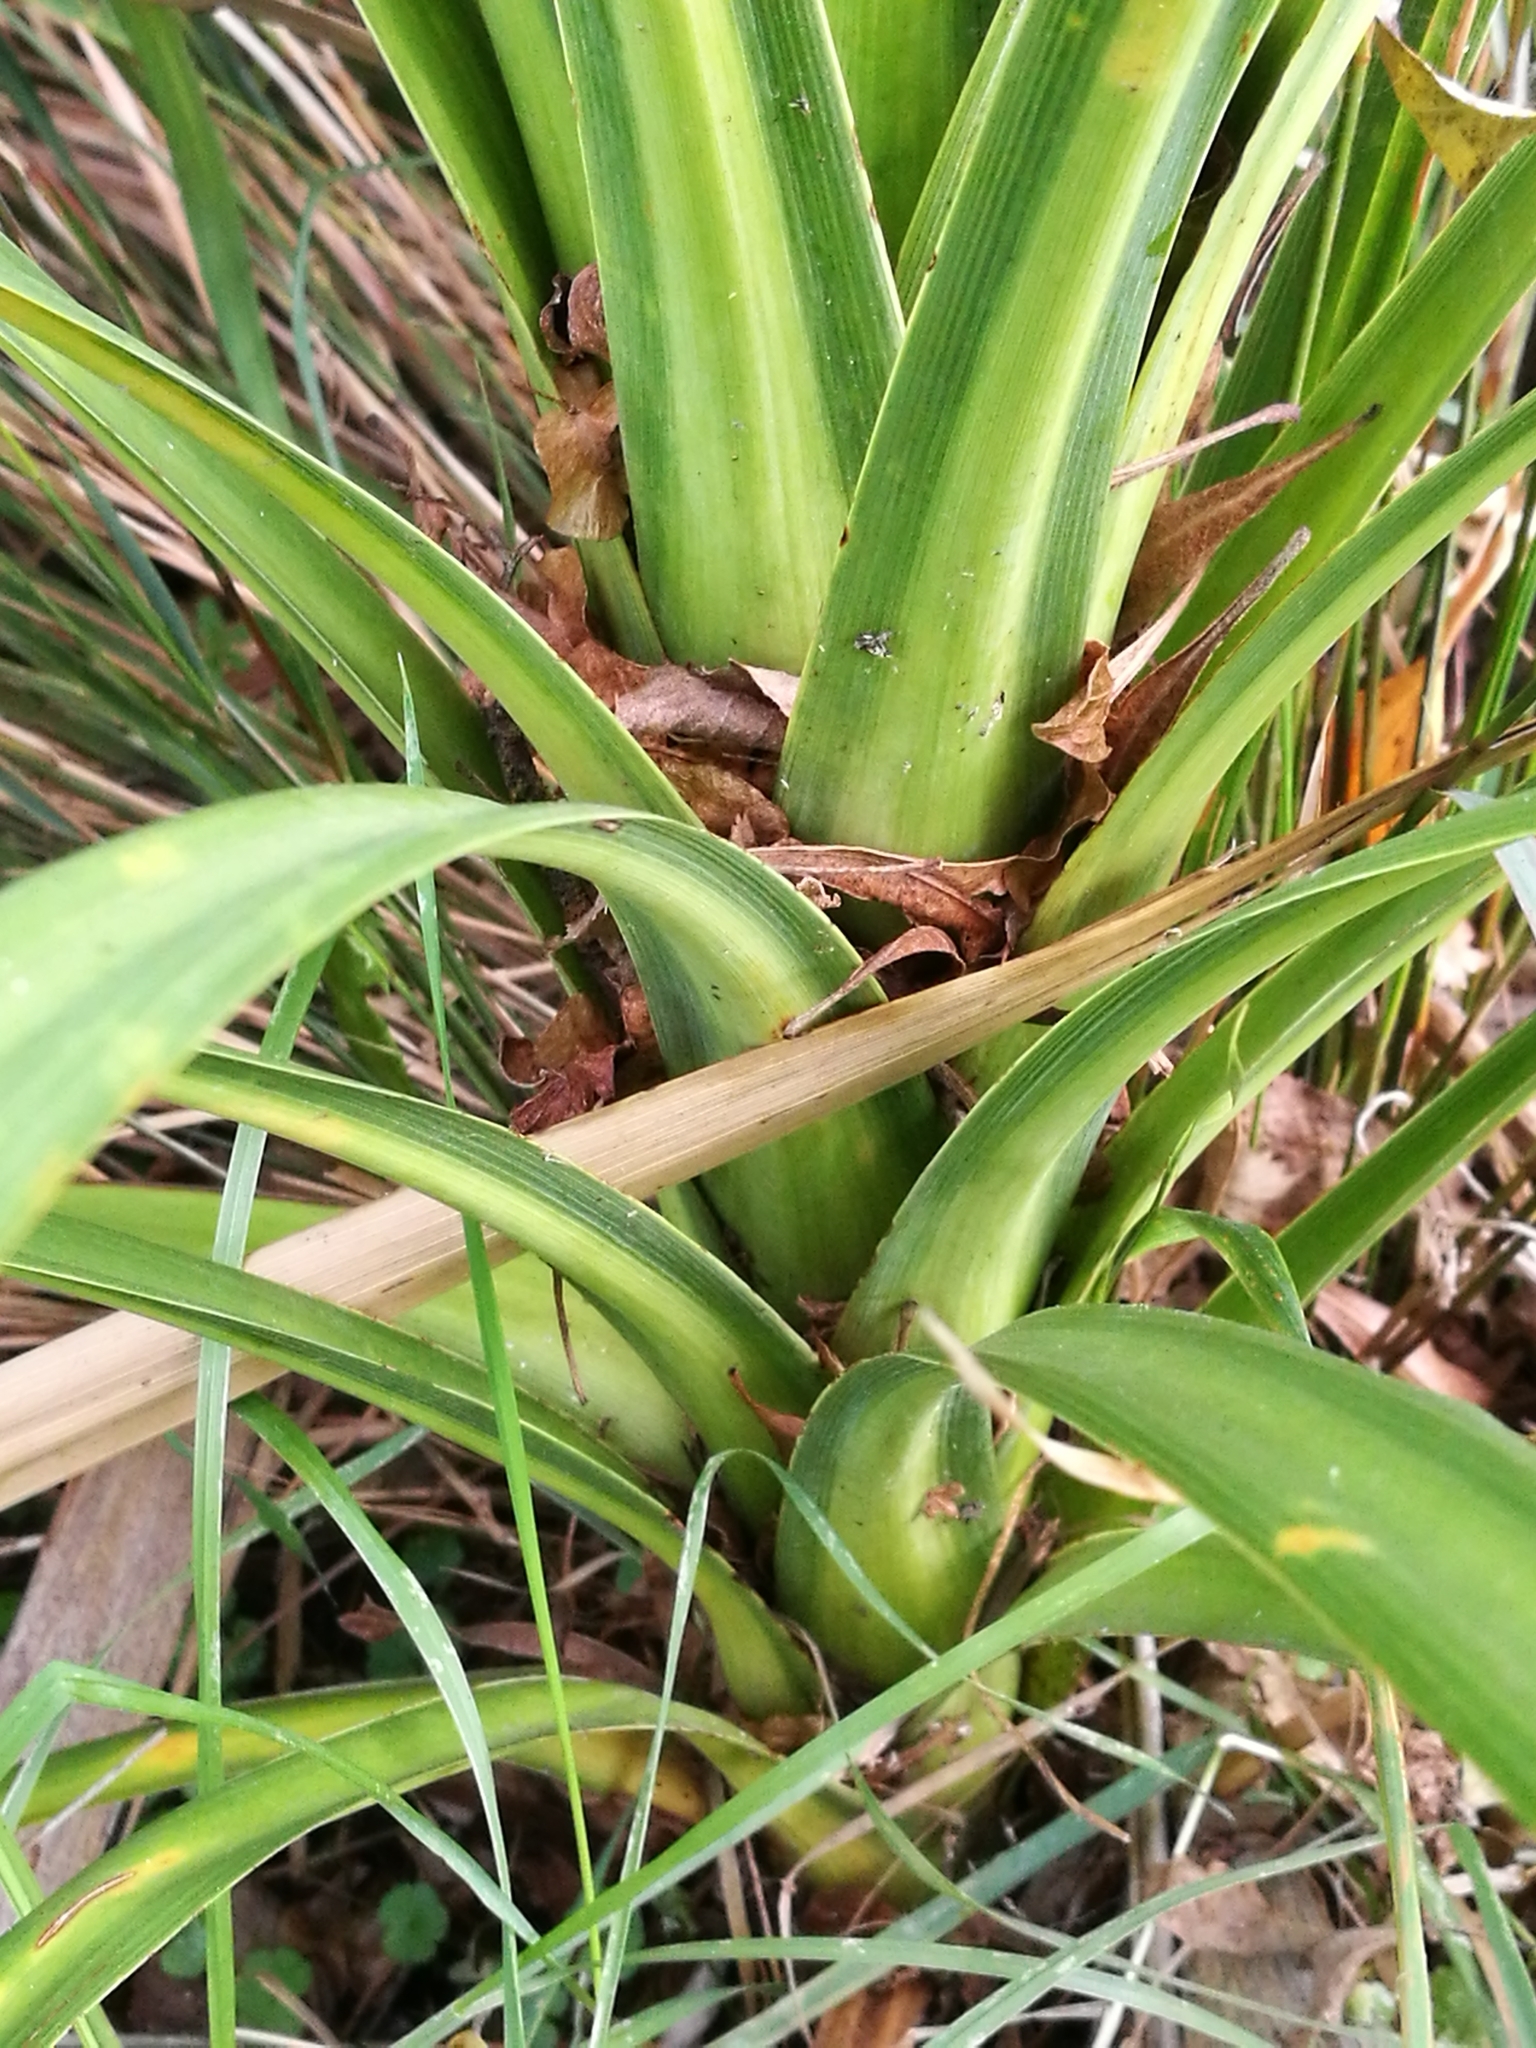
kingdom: Plantae
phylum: Tracheophyta
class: Liliopsida
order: Asparagales
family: Asparagaceae
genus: Cordyline
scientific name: Cordyline australis
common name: Cabbage-palm
